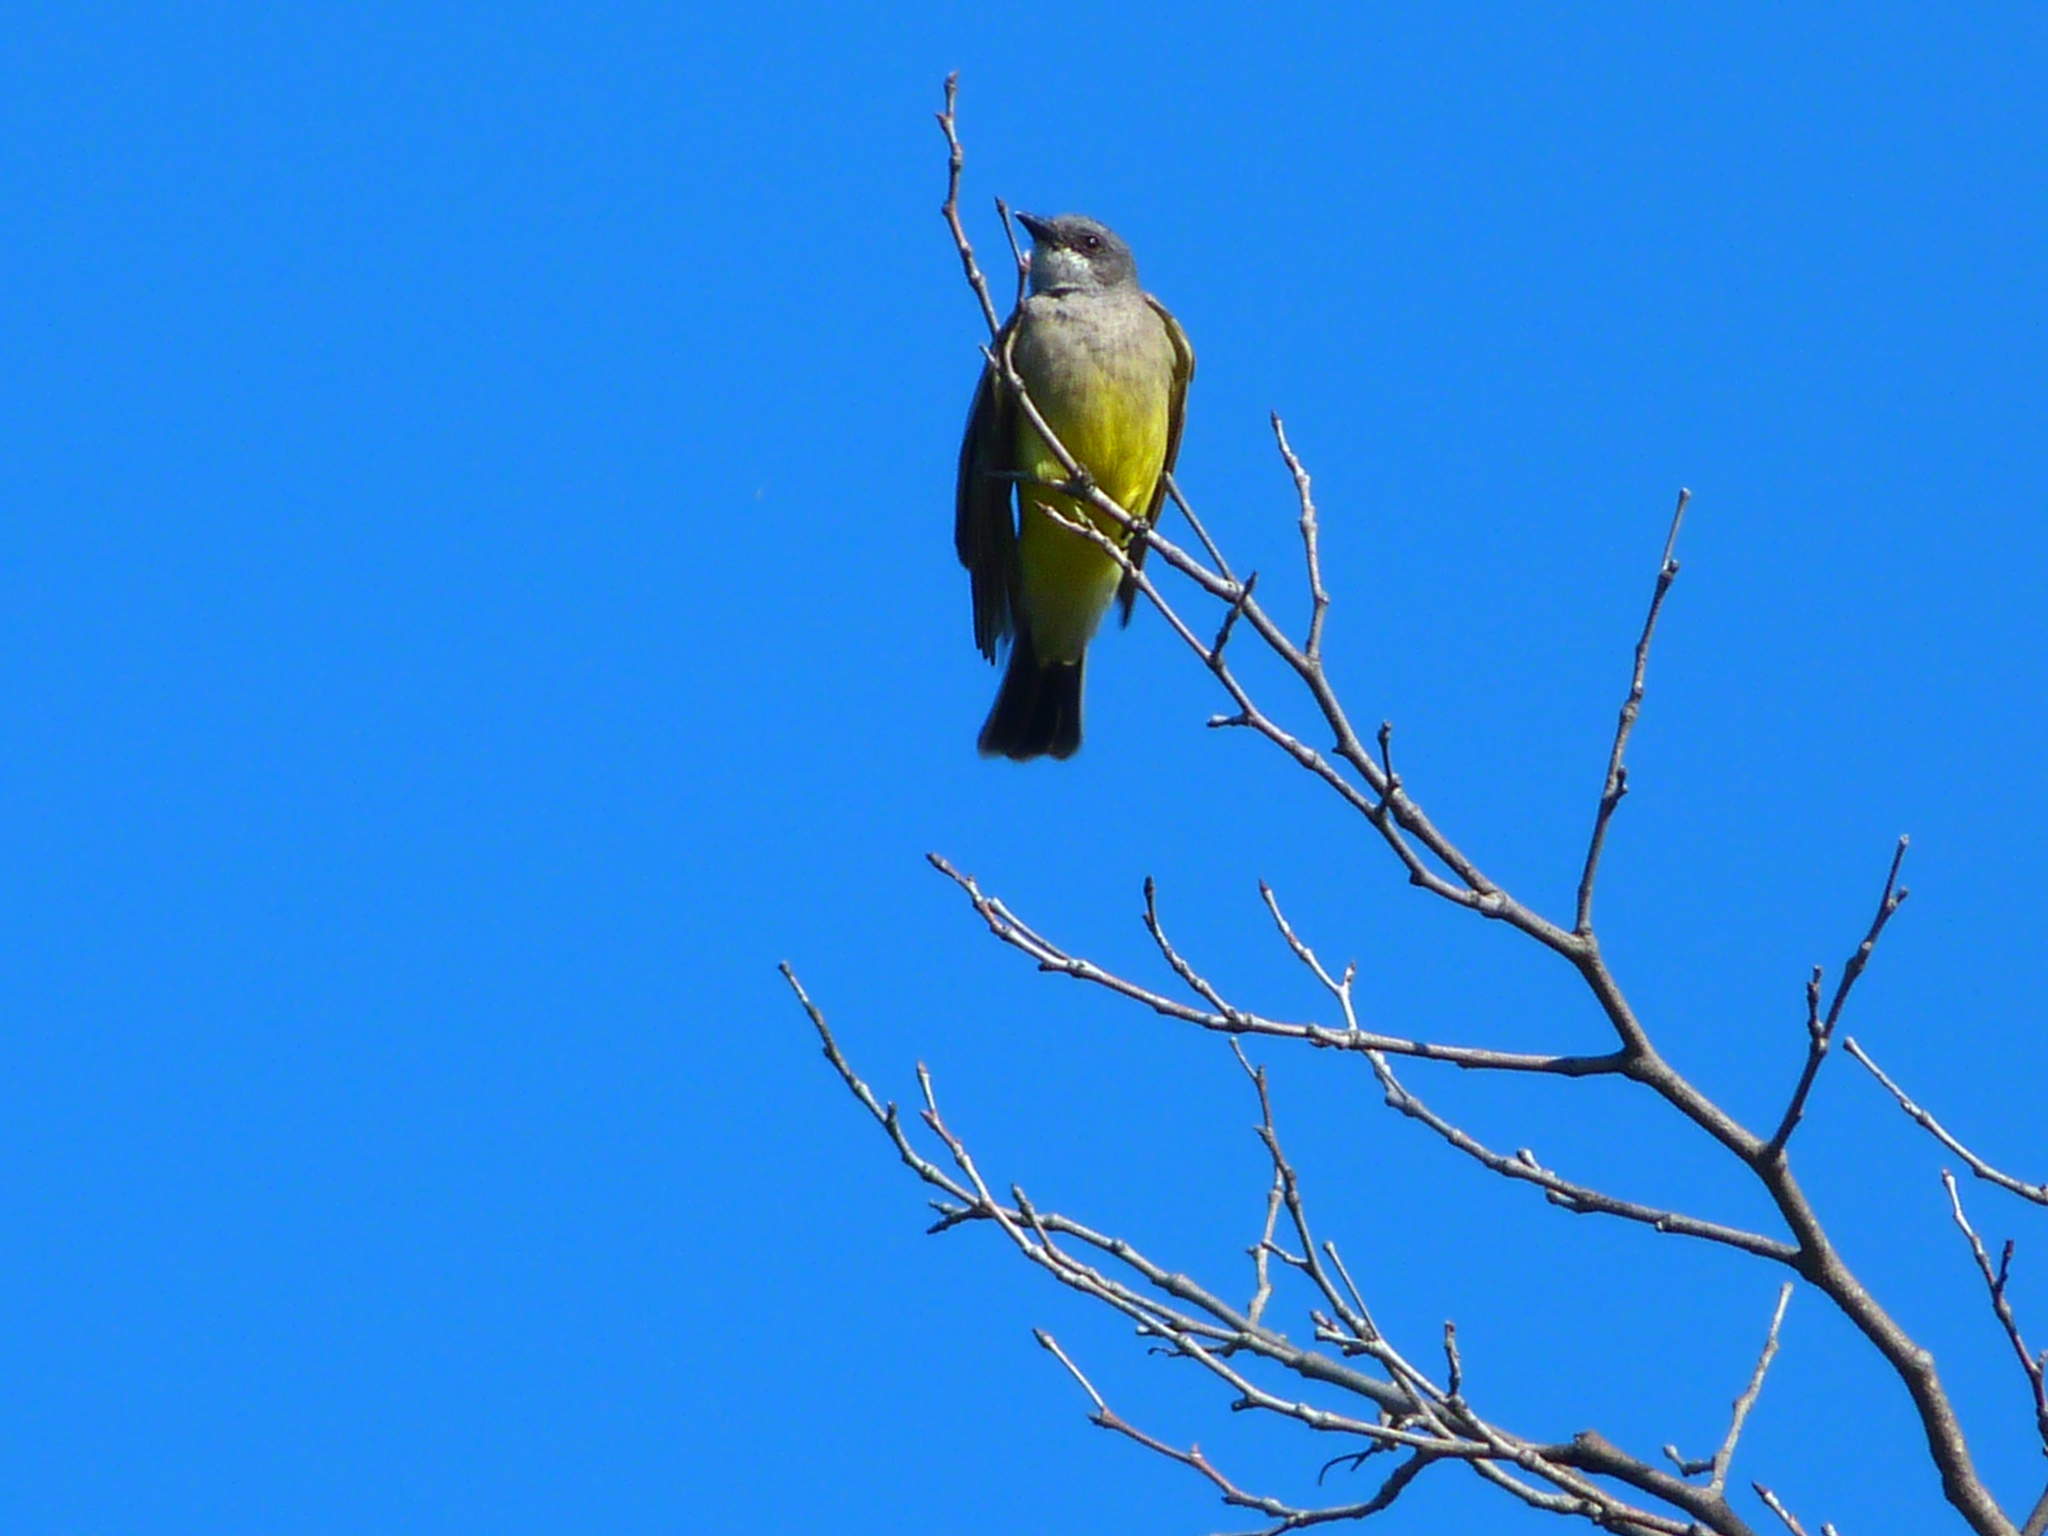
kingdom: Animalia
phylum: Chordata
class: Aves
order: Passeriformes
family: Tyrannidae
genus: Tyrannus
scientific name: Tyrannus vociferans
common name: Cassin's kingbird
